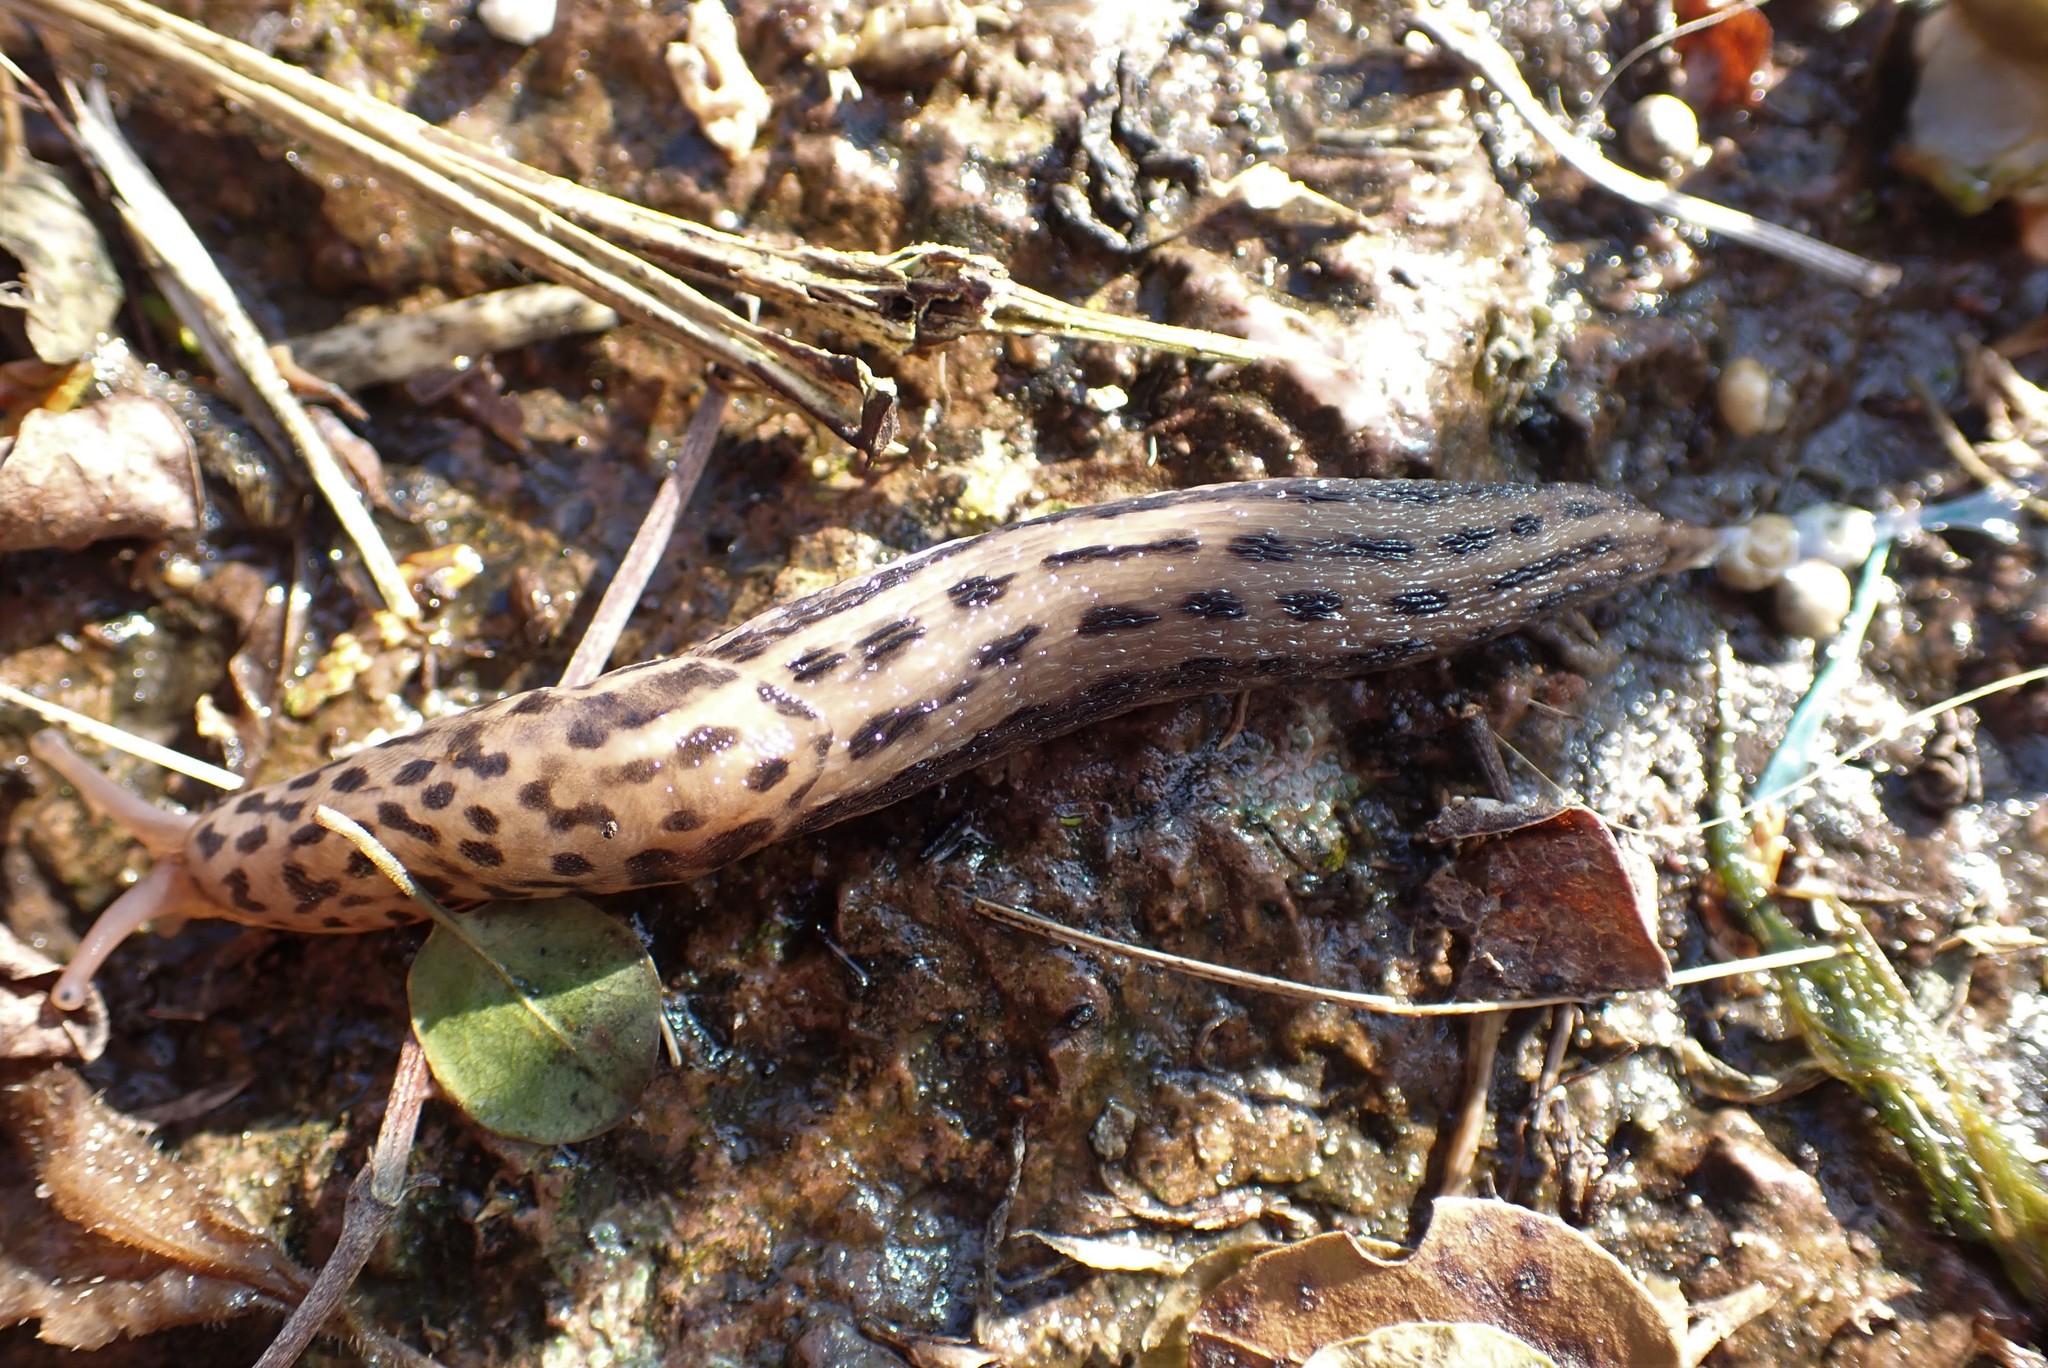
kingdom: Animalia
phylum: Mollusca
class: Gastropoda
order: Stylommatophora
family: Limacidae
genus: Limax
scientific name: Limax maximus
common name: Great grey slug
